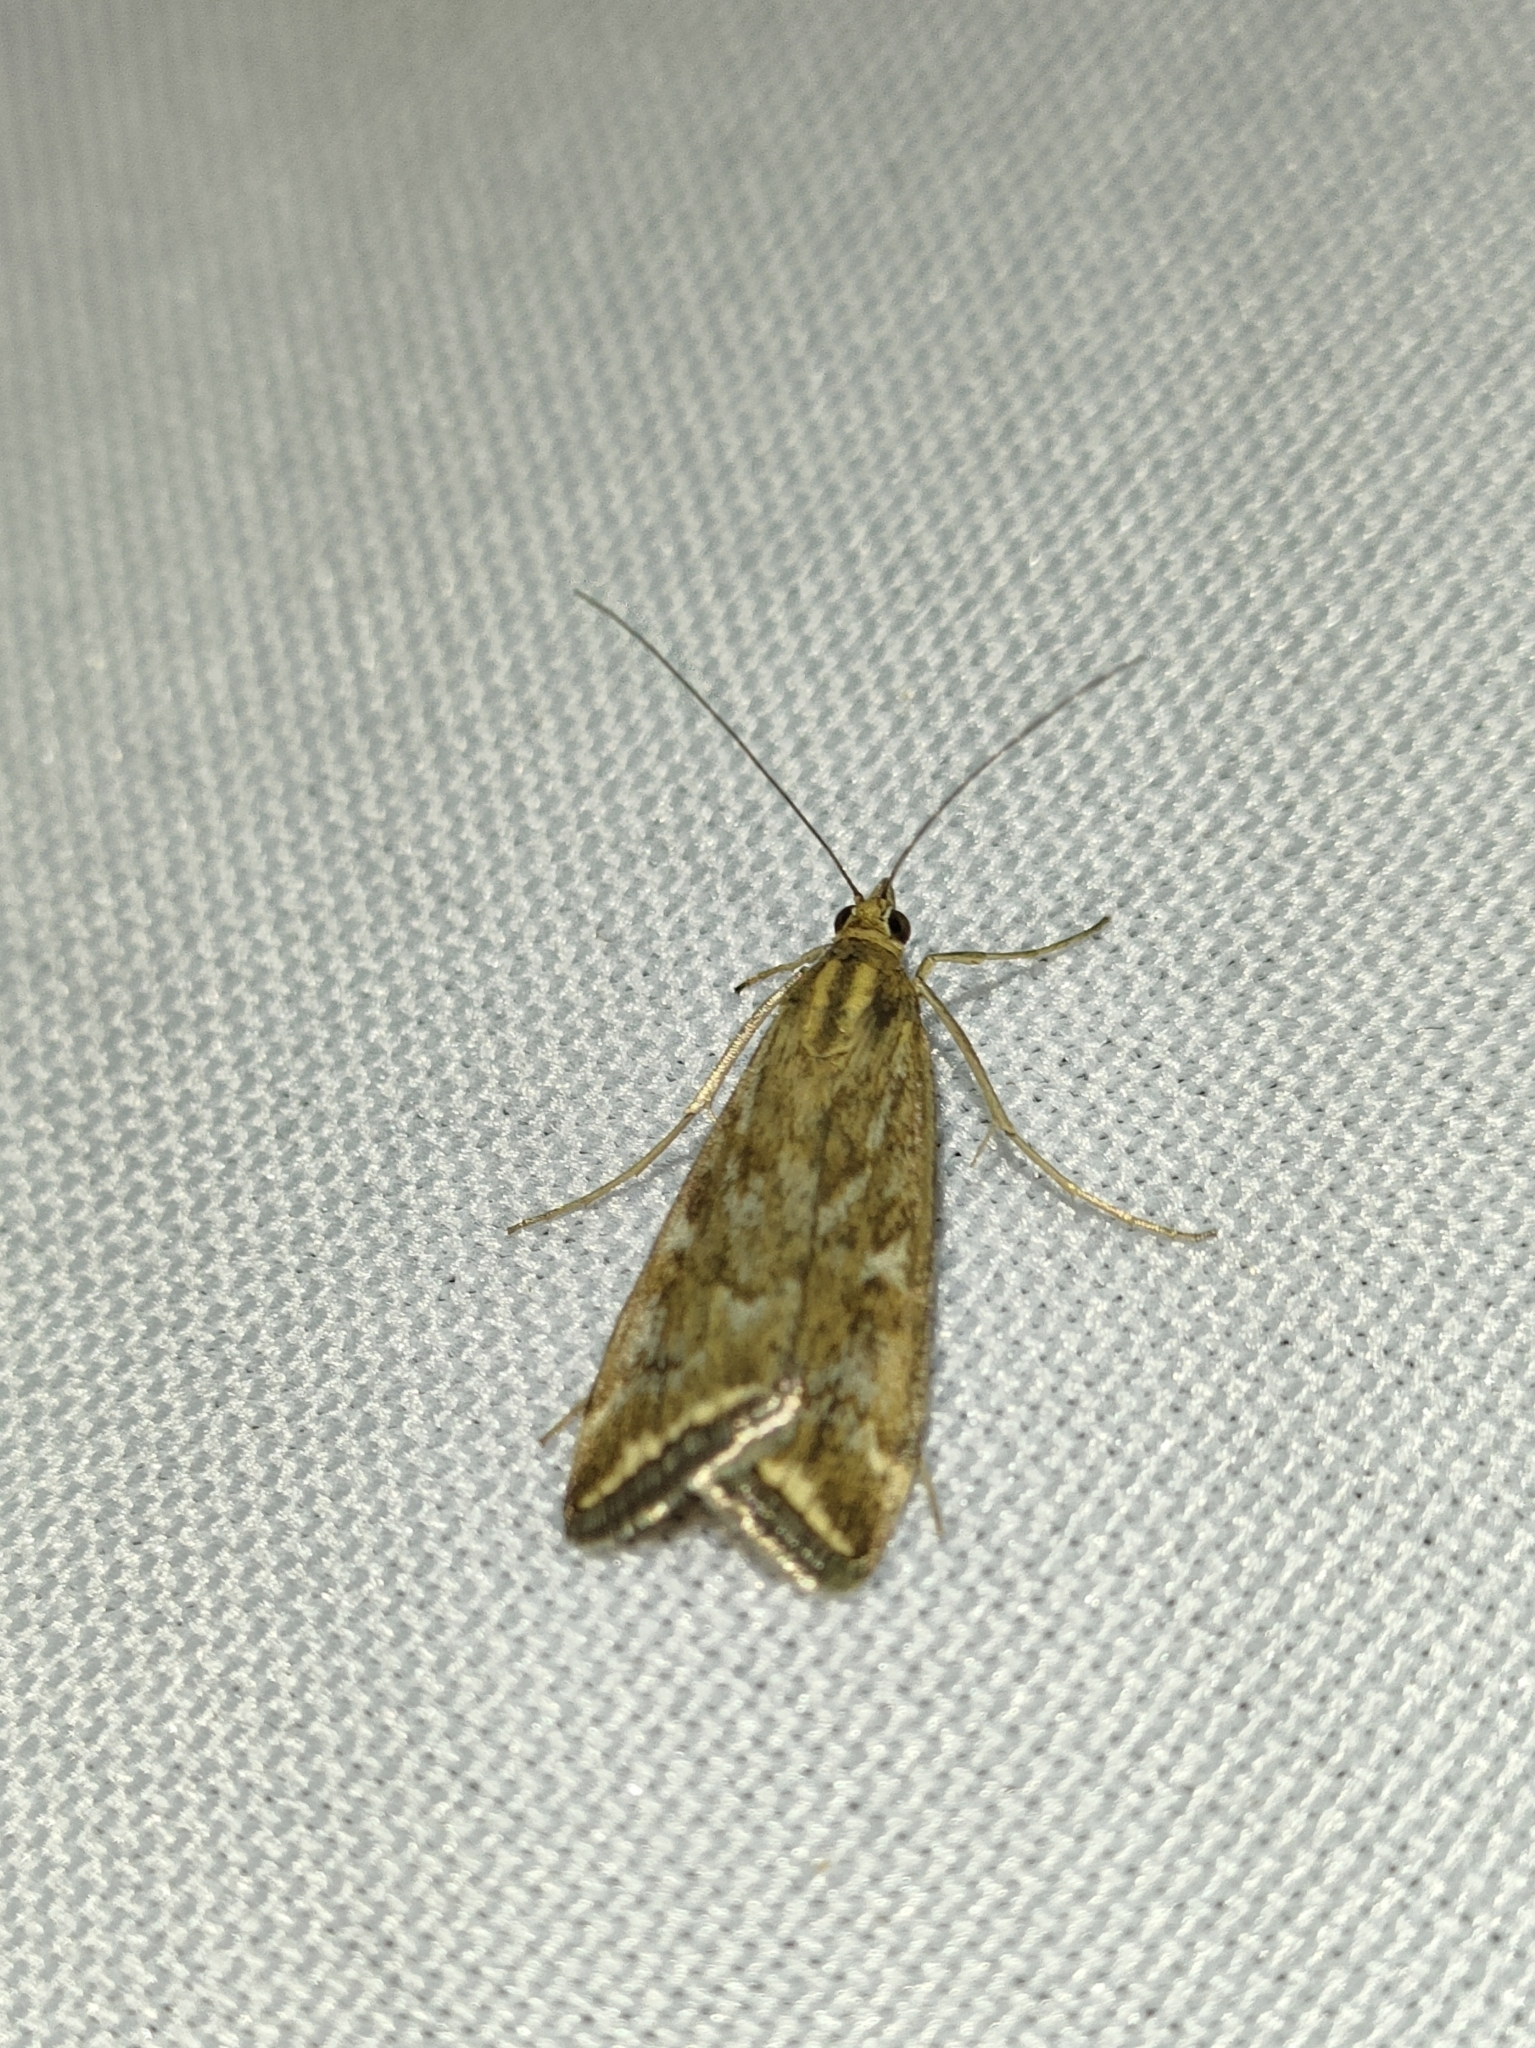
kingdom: Animalia
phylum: Arthropoda
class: Insecta
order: Lepidoptera
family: Crambidae
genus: Loxostege
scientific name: Loxostege sticticalis
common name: Crambid moth
